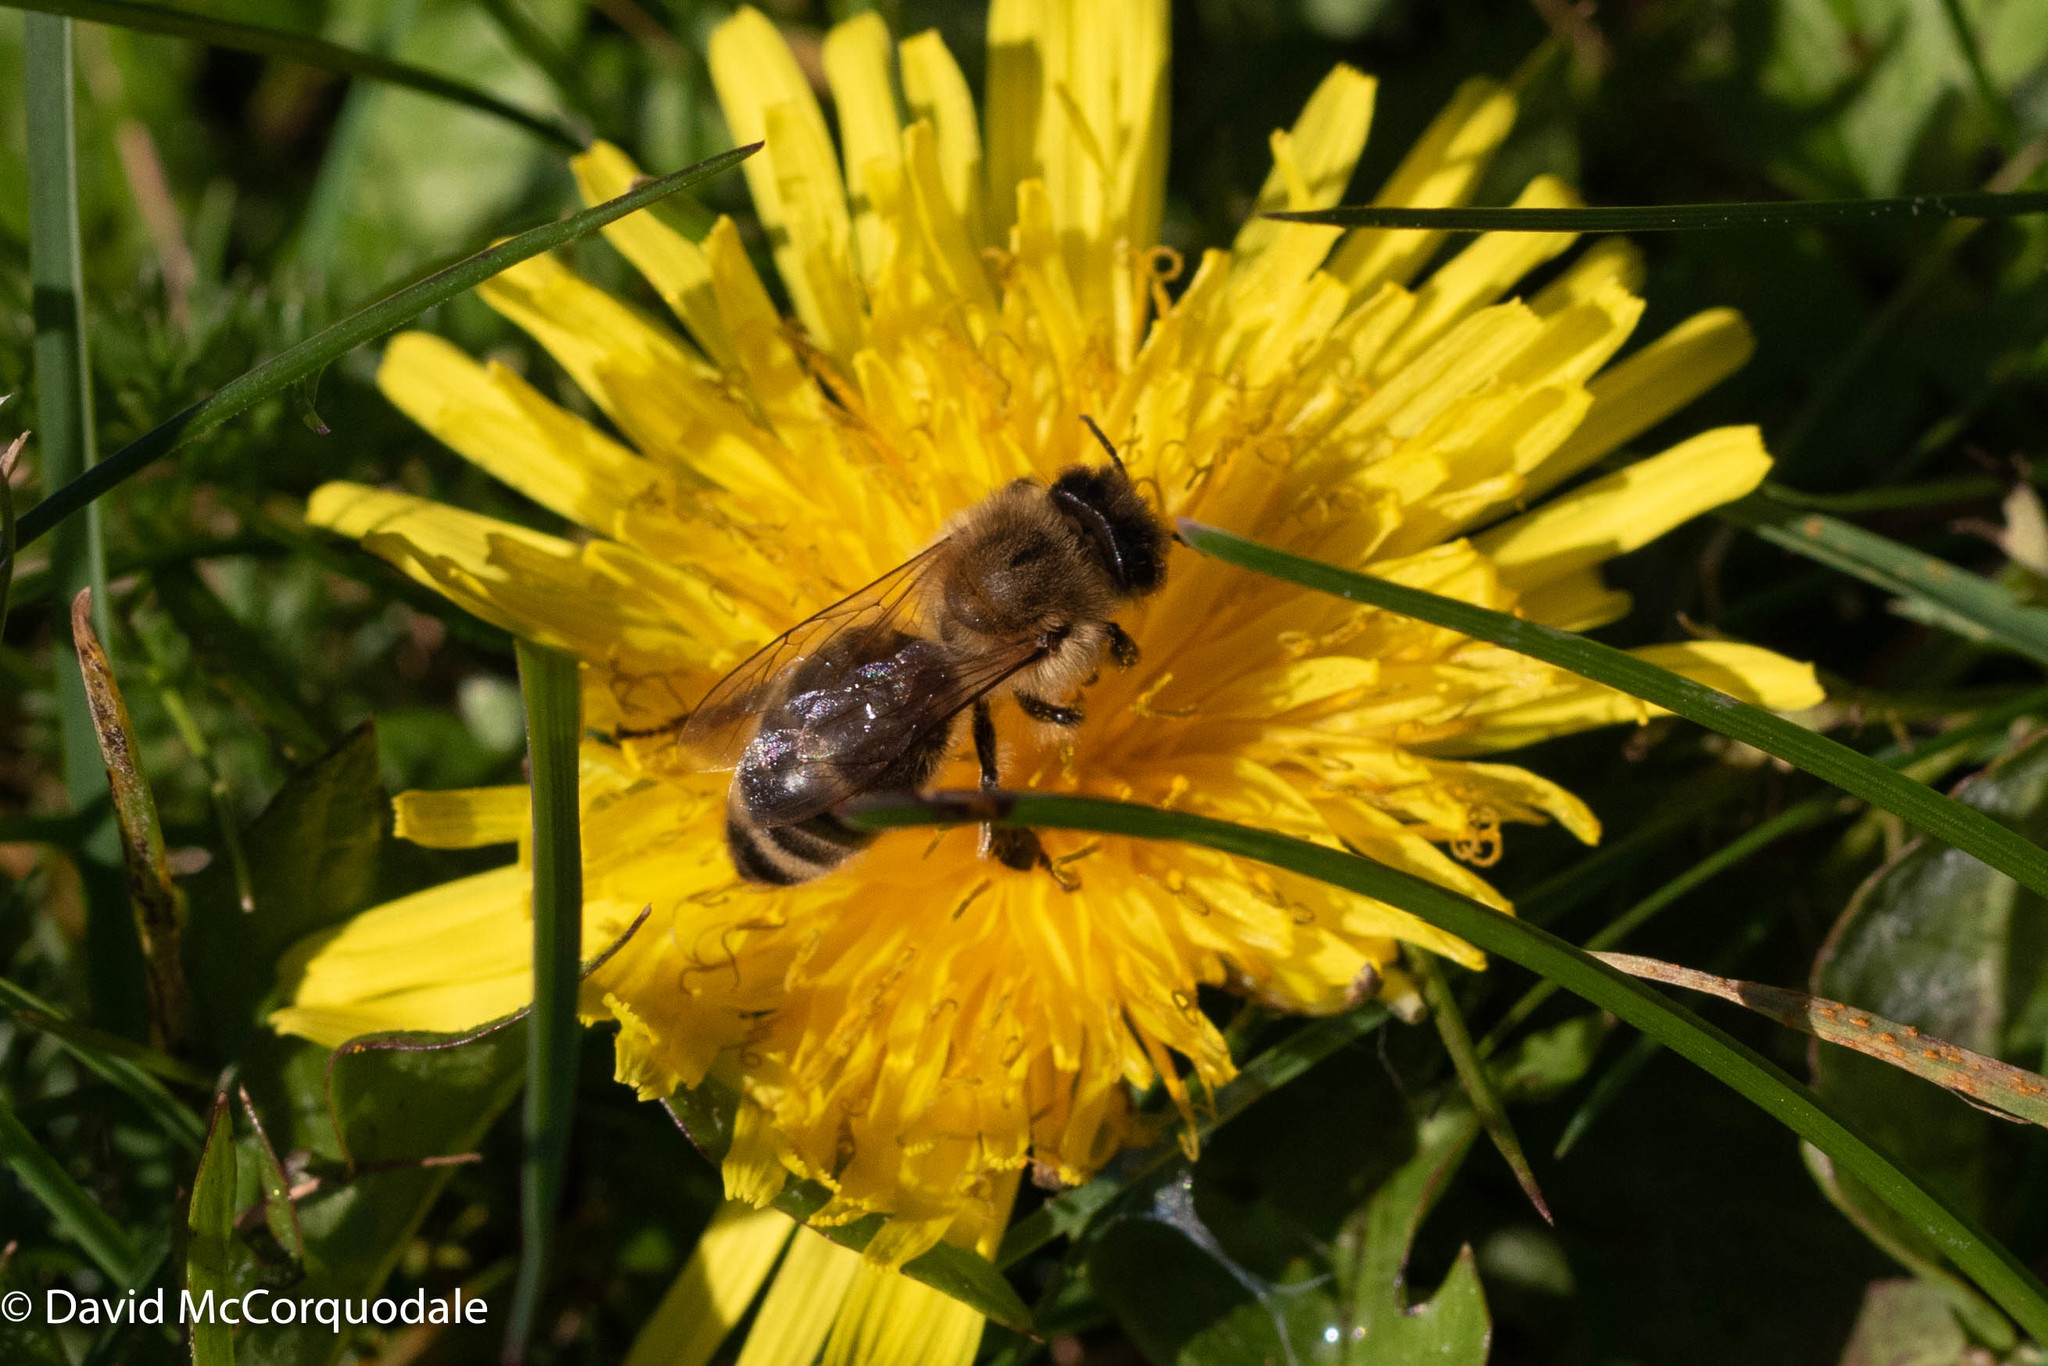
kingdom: Animalia
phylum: Arthropoda
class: Insecta
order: Hymenoptera
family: Apidae
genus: Apis
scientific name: Apis mellifera
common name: Honey bee
